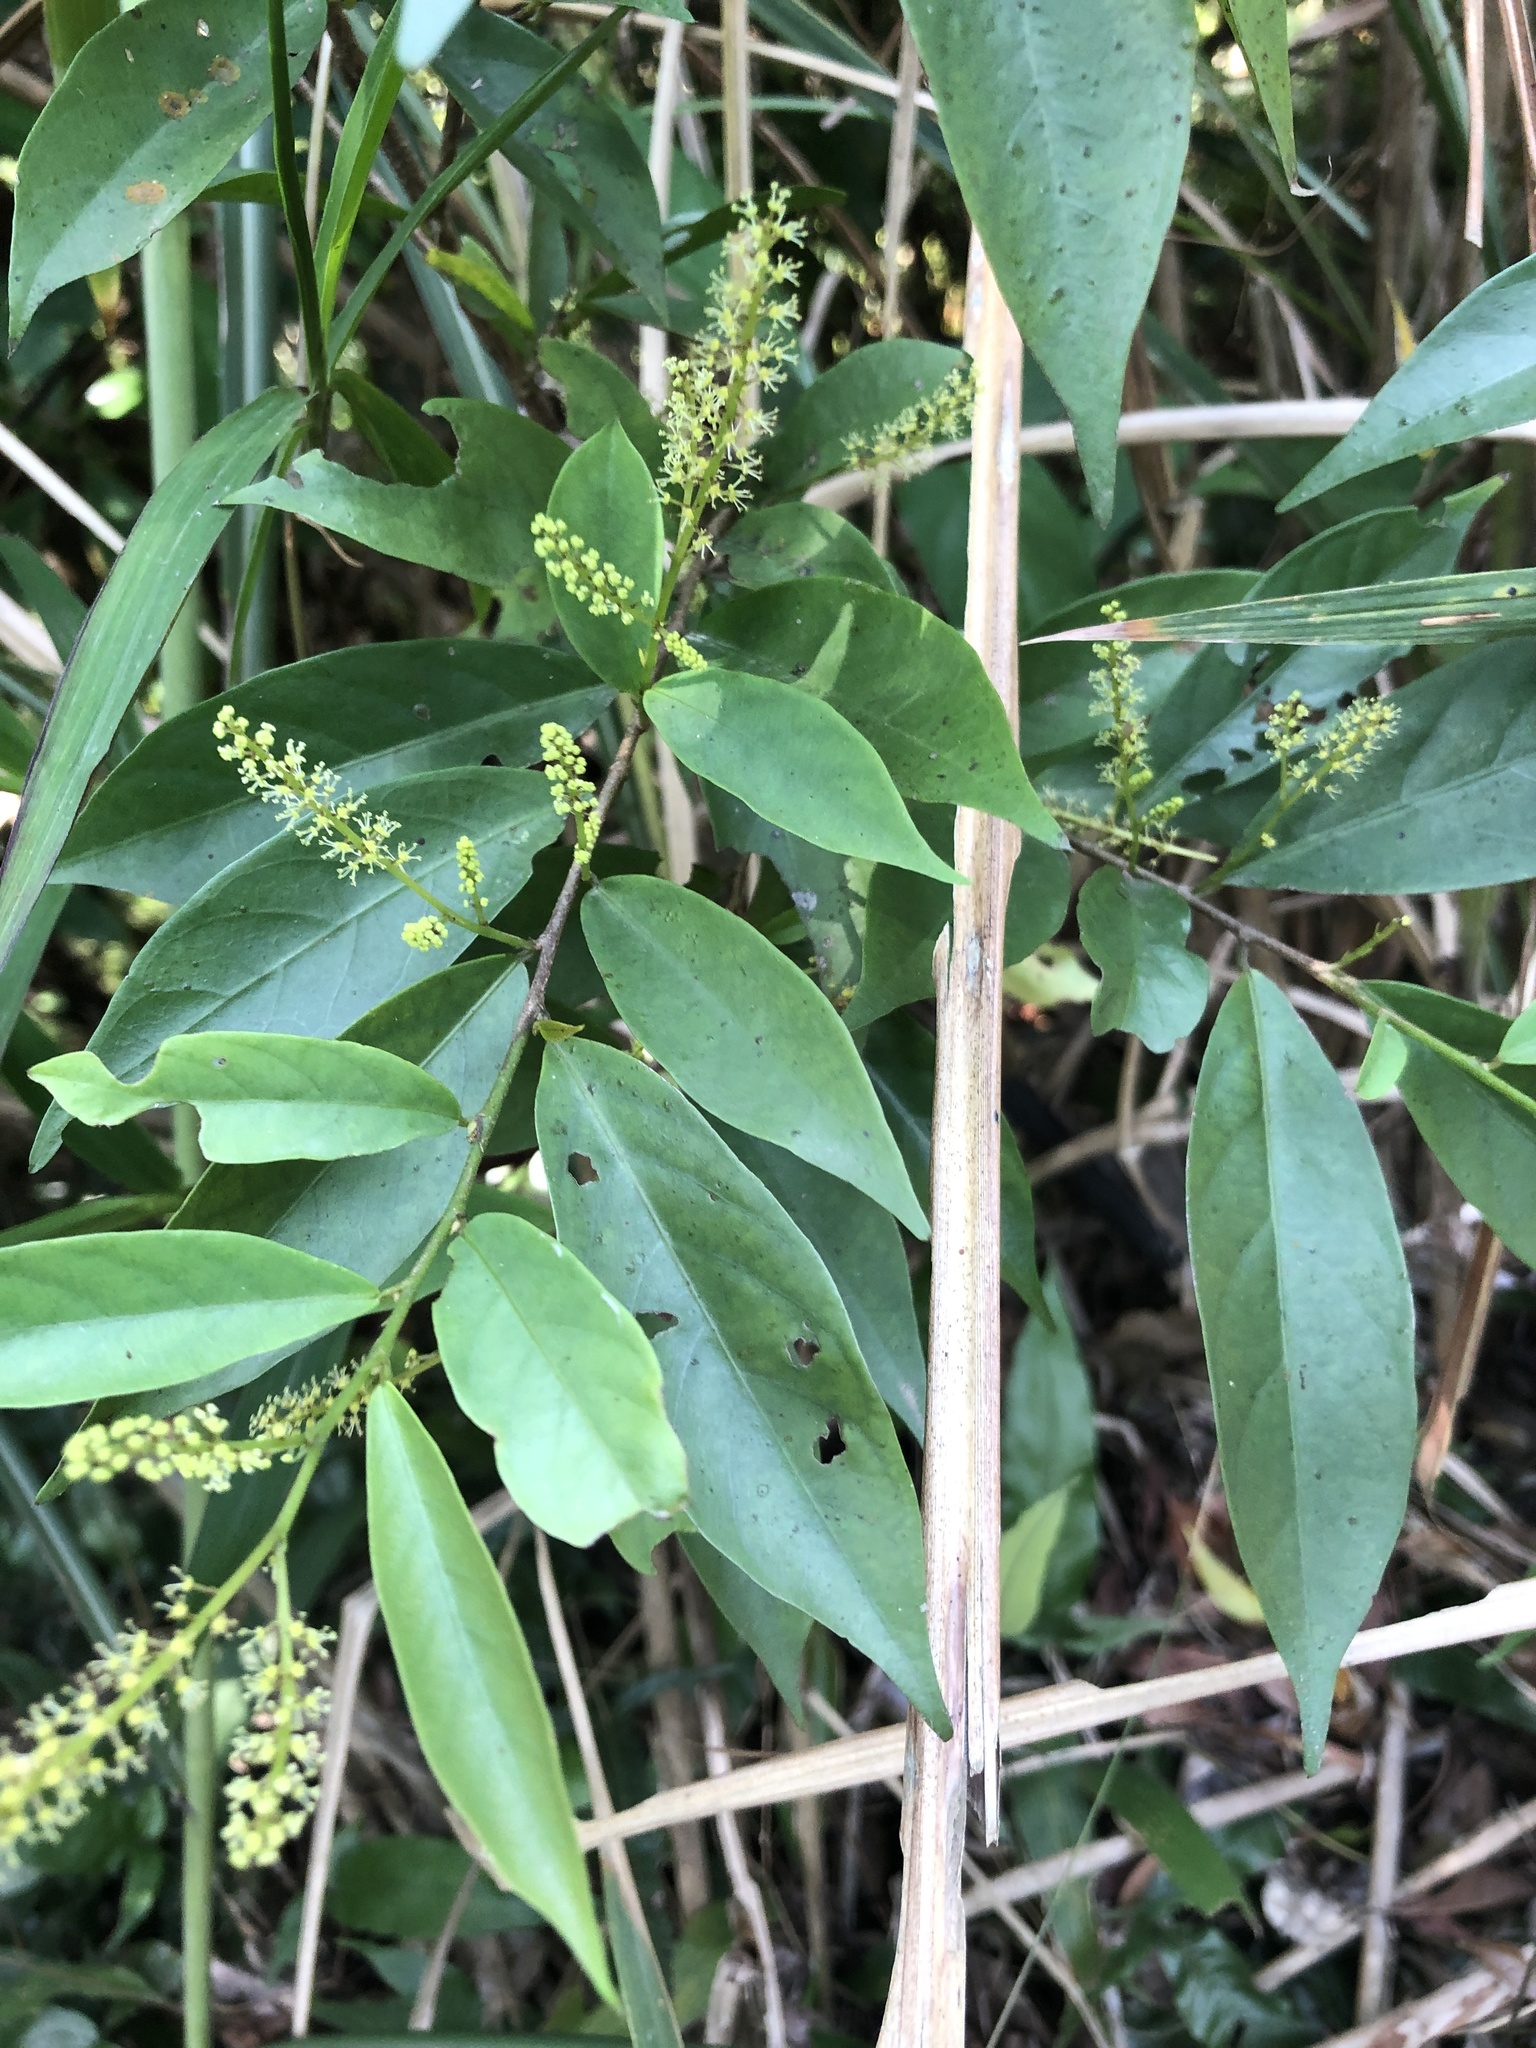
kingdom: Plantae
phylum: Tracheophyta
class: Magnoliopsida
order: Malpighiales
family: Phyllanthaceae
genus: Antidesma
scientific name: Antidesma japonicum
